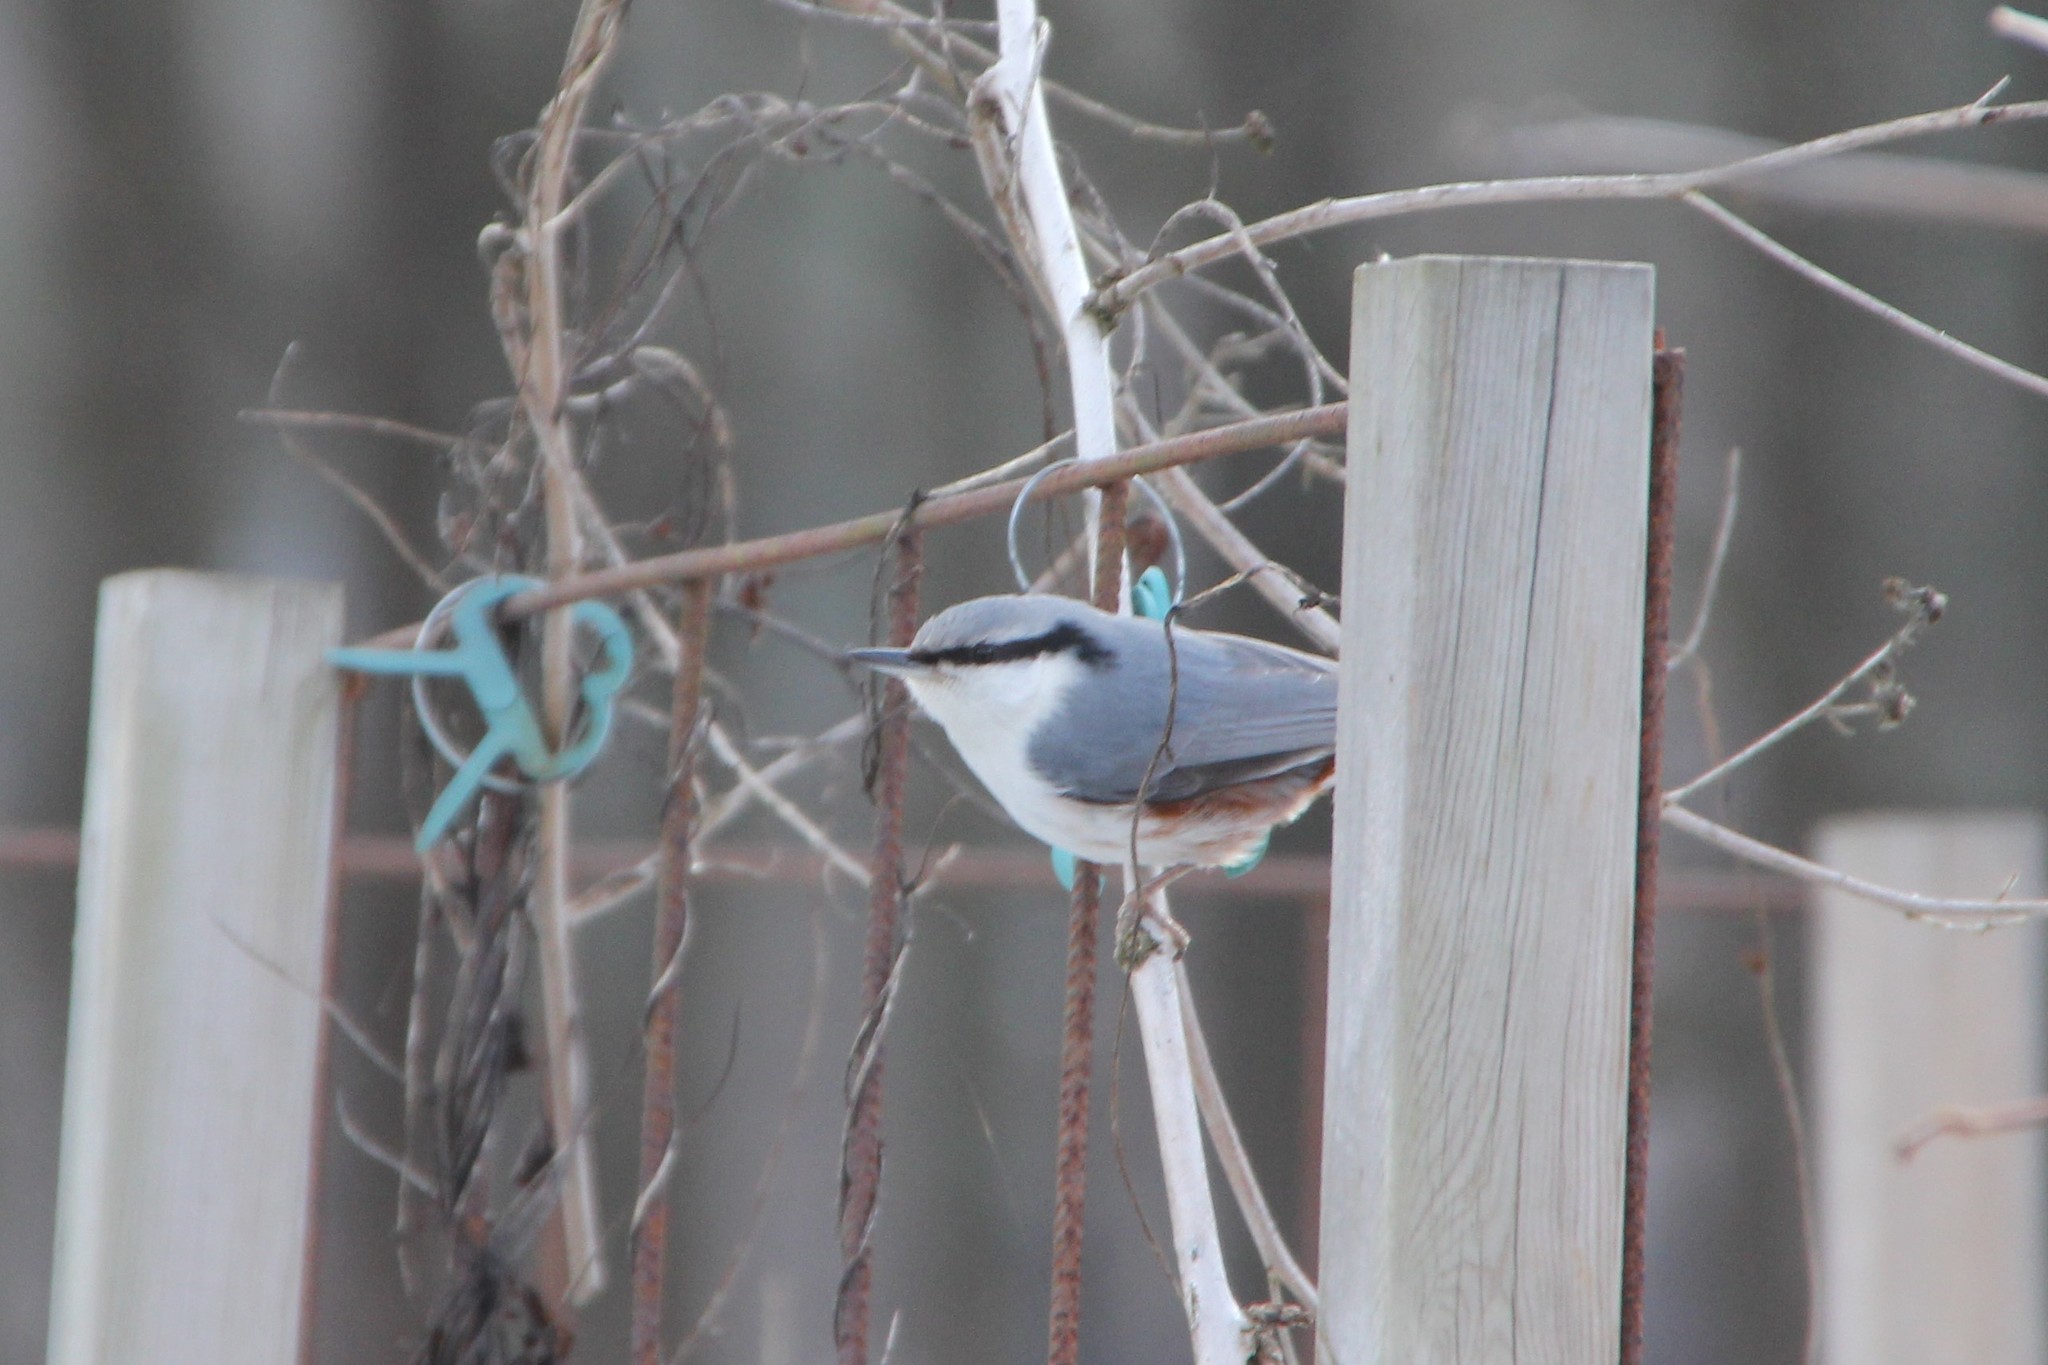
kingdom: Animalia
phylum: Chordata
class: Aves
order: Passeriformes
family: Sittidae
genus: Sitta
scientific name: Sitta europaea
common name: Eurasian nuthatch
